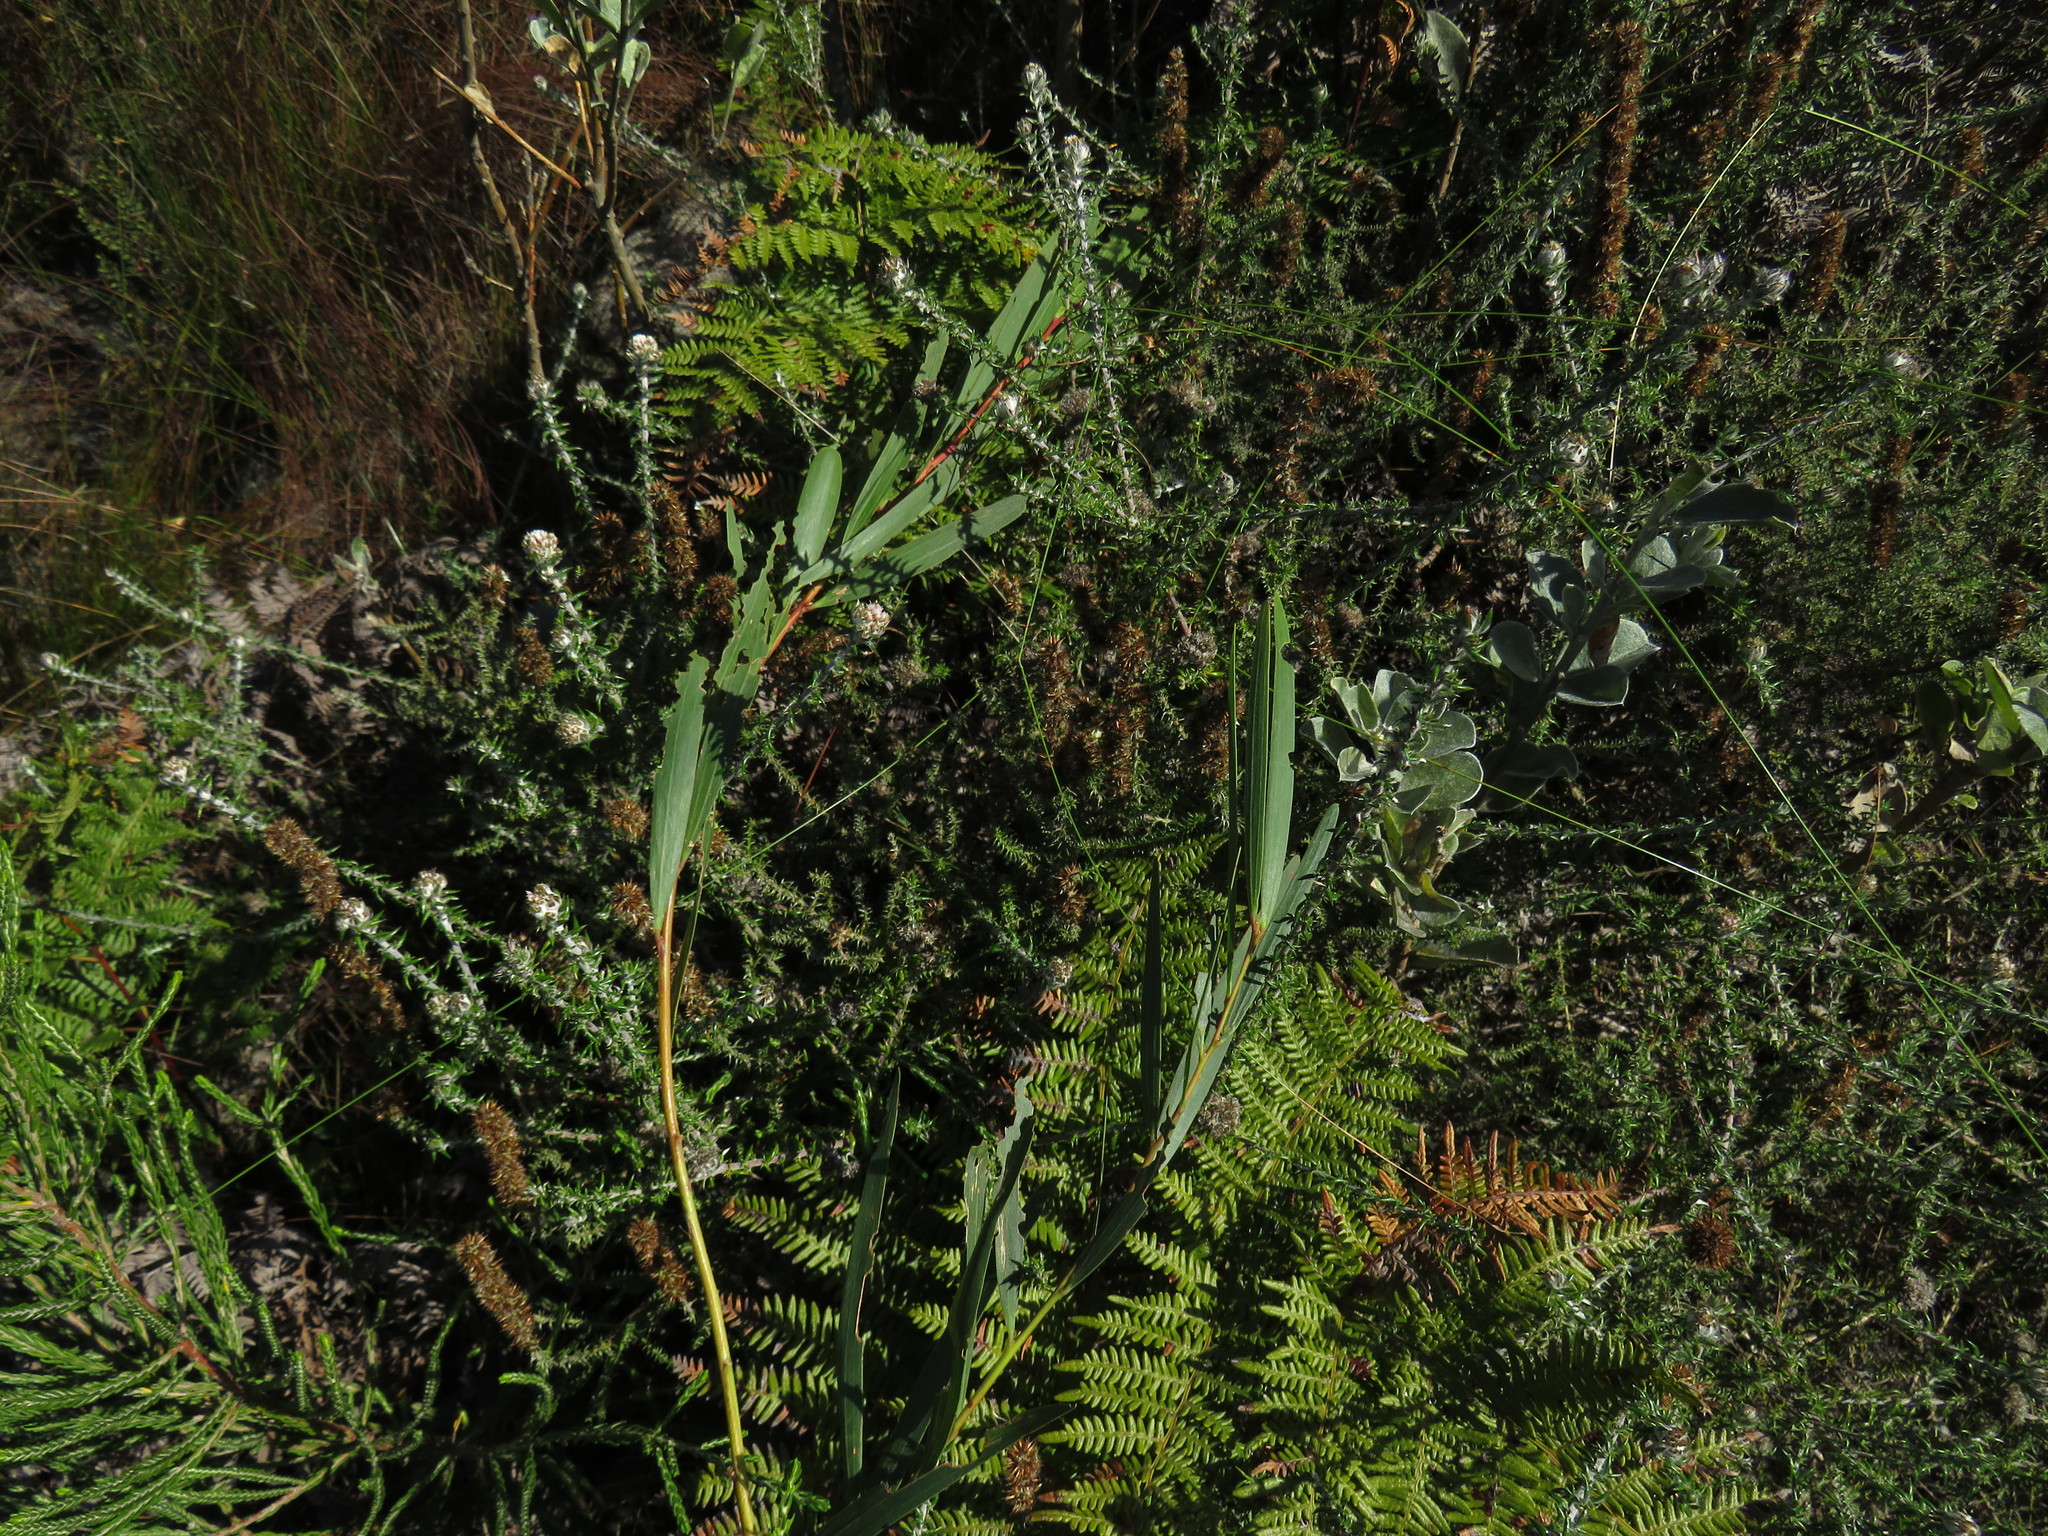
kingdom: Plantae
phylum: Tracheophyta
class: Magnoliopsida
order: Fabales
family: Fabaceae
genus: Acacia
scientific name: Acacia longifolia
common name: Sydney golden wattle
